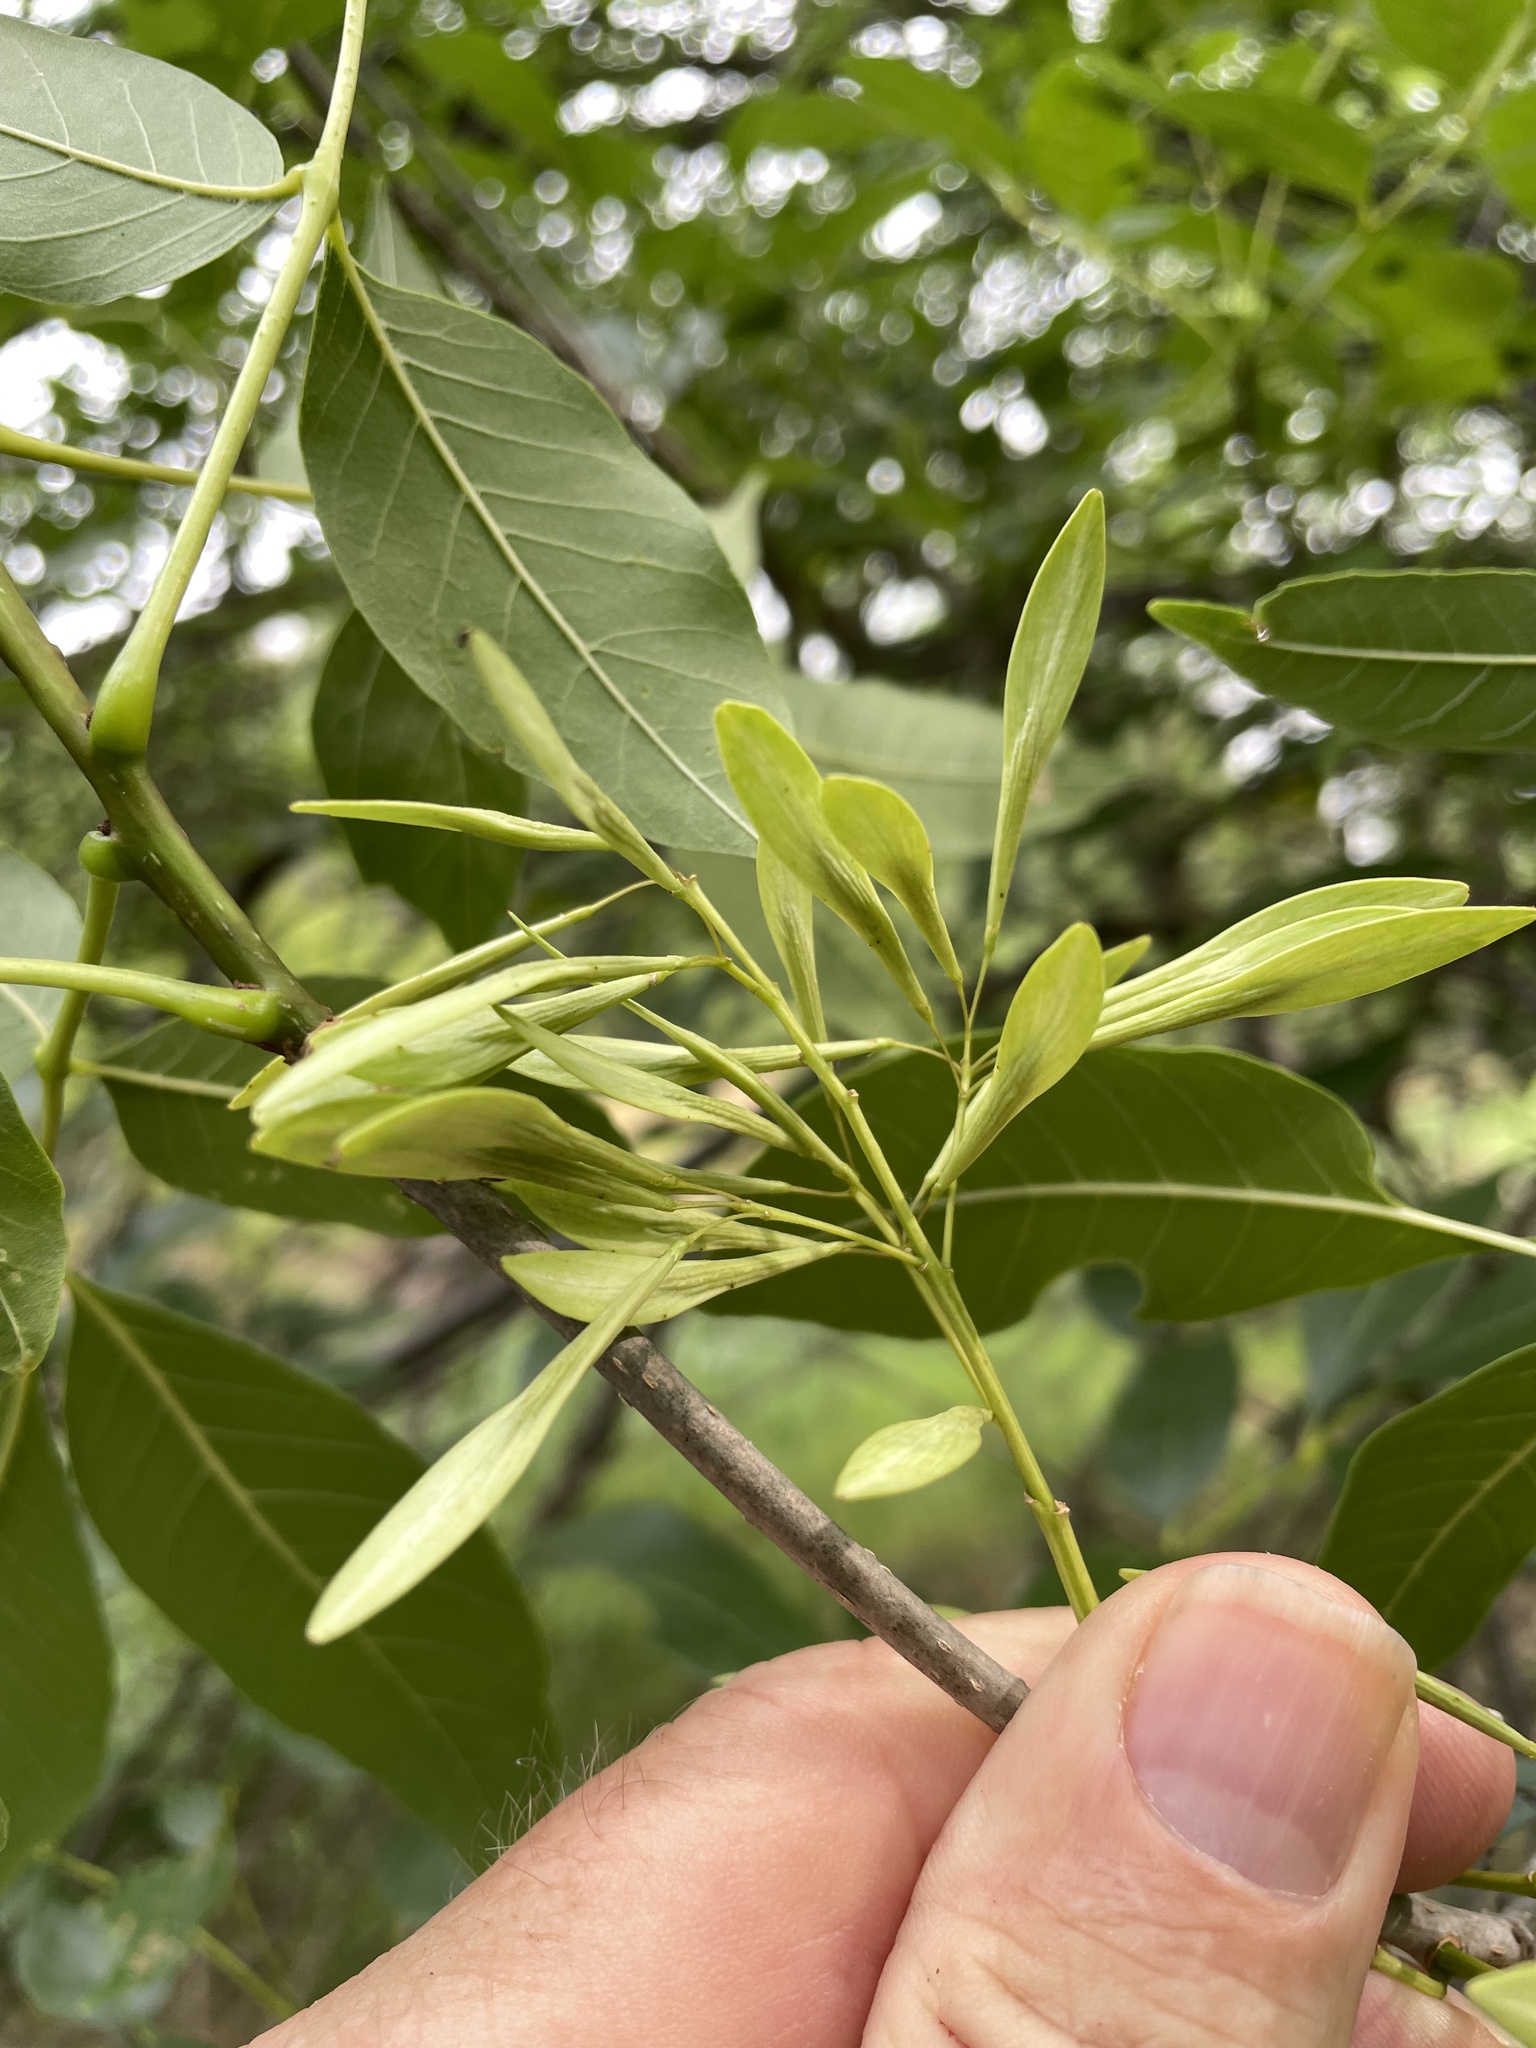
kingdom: Plantae
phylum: Tracheophyta
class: Magnoliopsida
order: Lamiales
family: Oleaceae
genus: Fraxinus
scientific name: Fraxinus pennsylvanica
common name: Green ash
